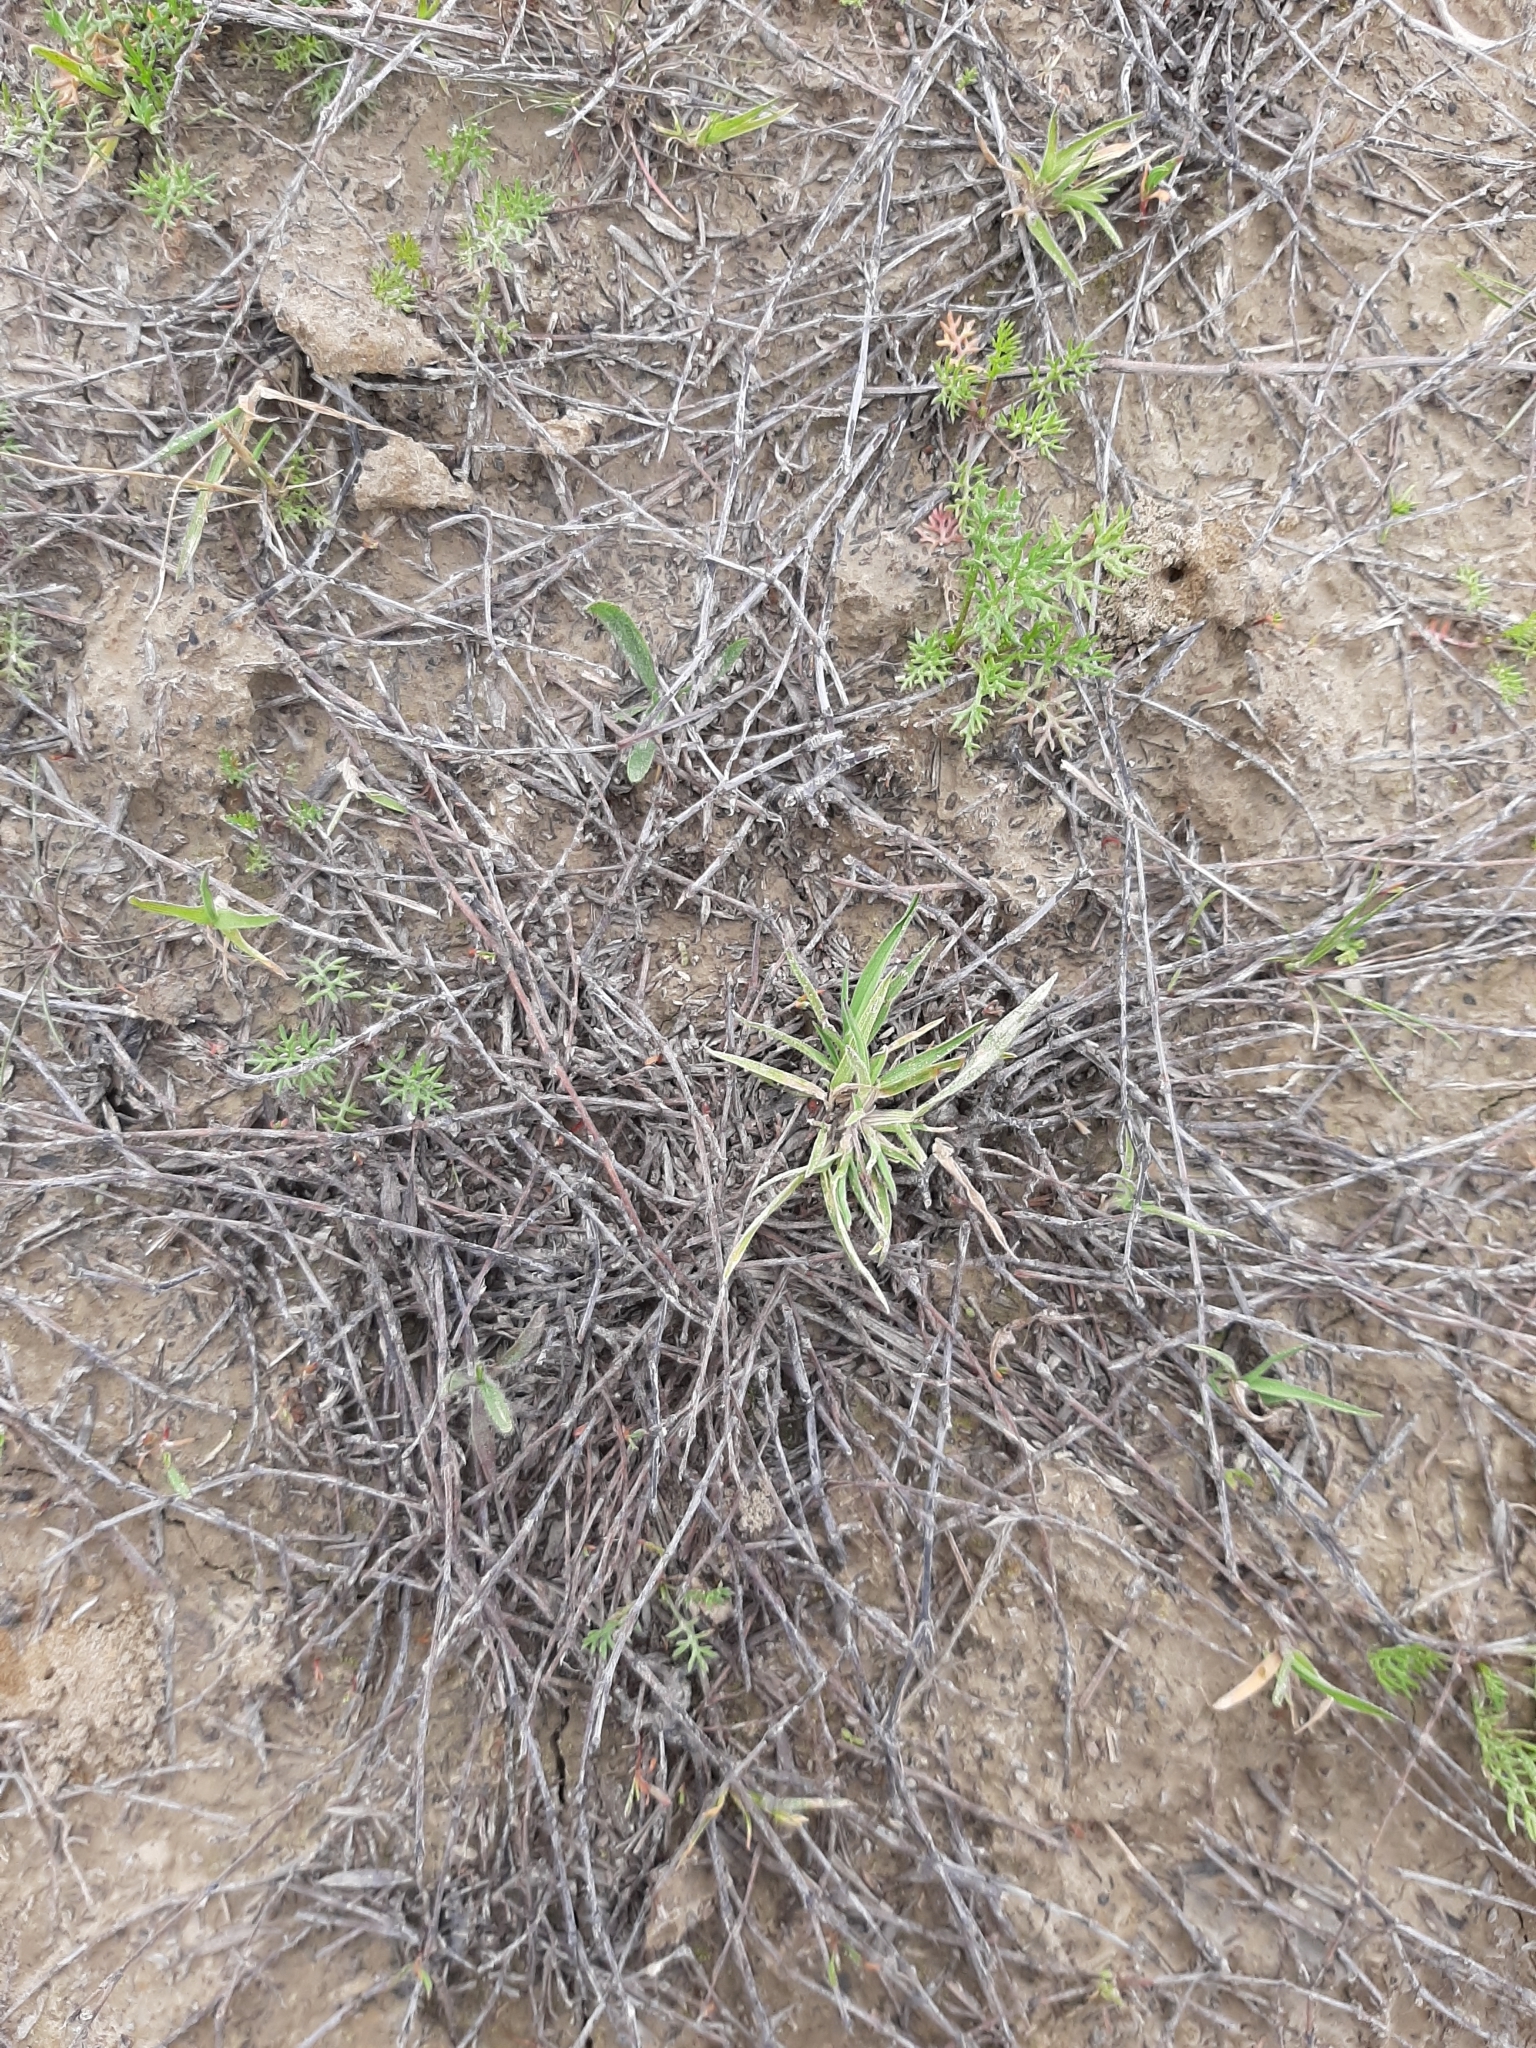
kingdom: Plantae
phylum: Tracheophyta
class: Magnoliopsida
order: Caryophyllales
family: Polygonaceae
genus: Muehlenbeckia
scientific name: Muehlenbeckia ephedroides
